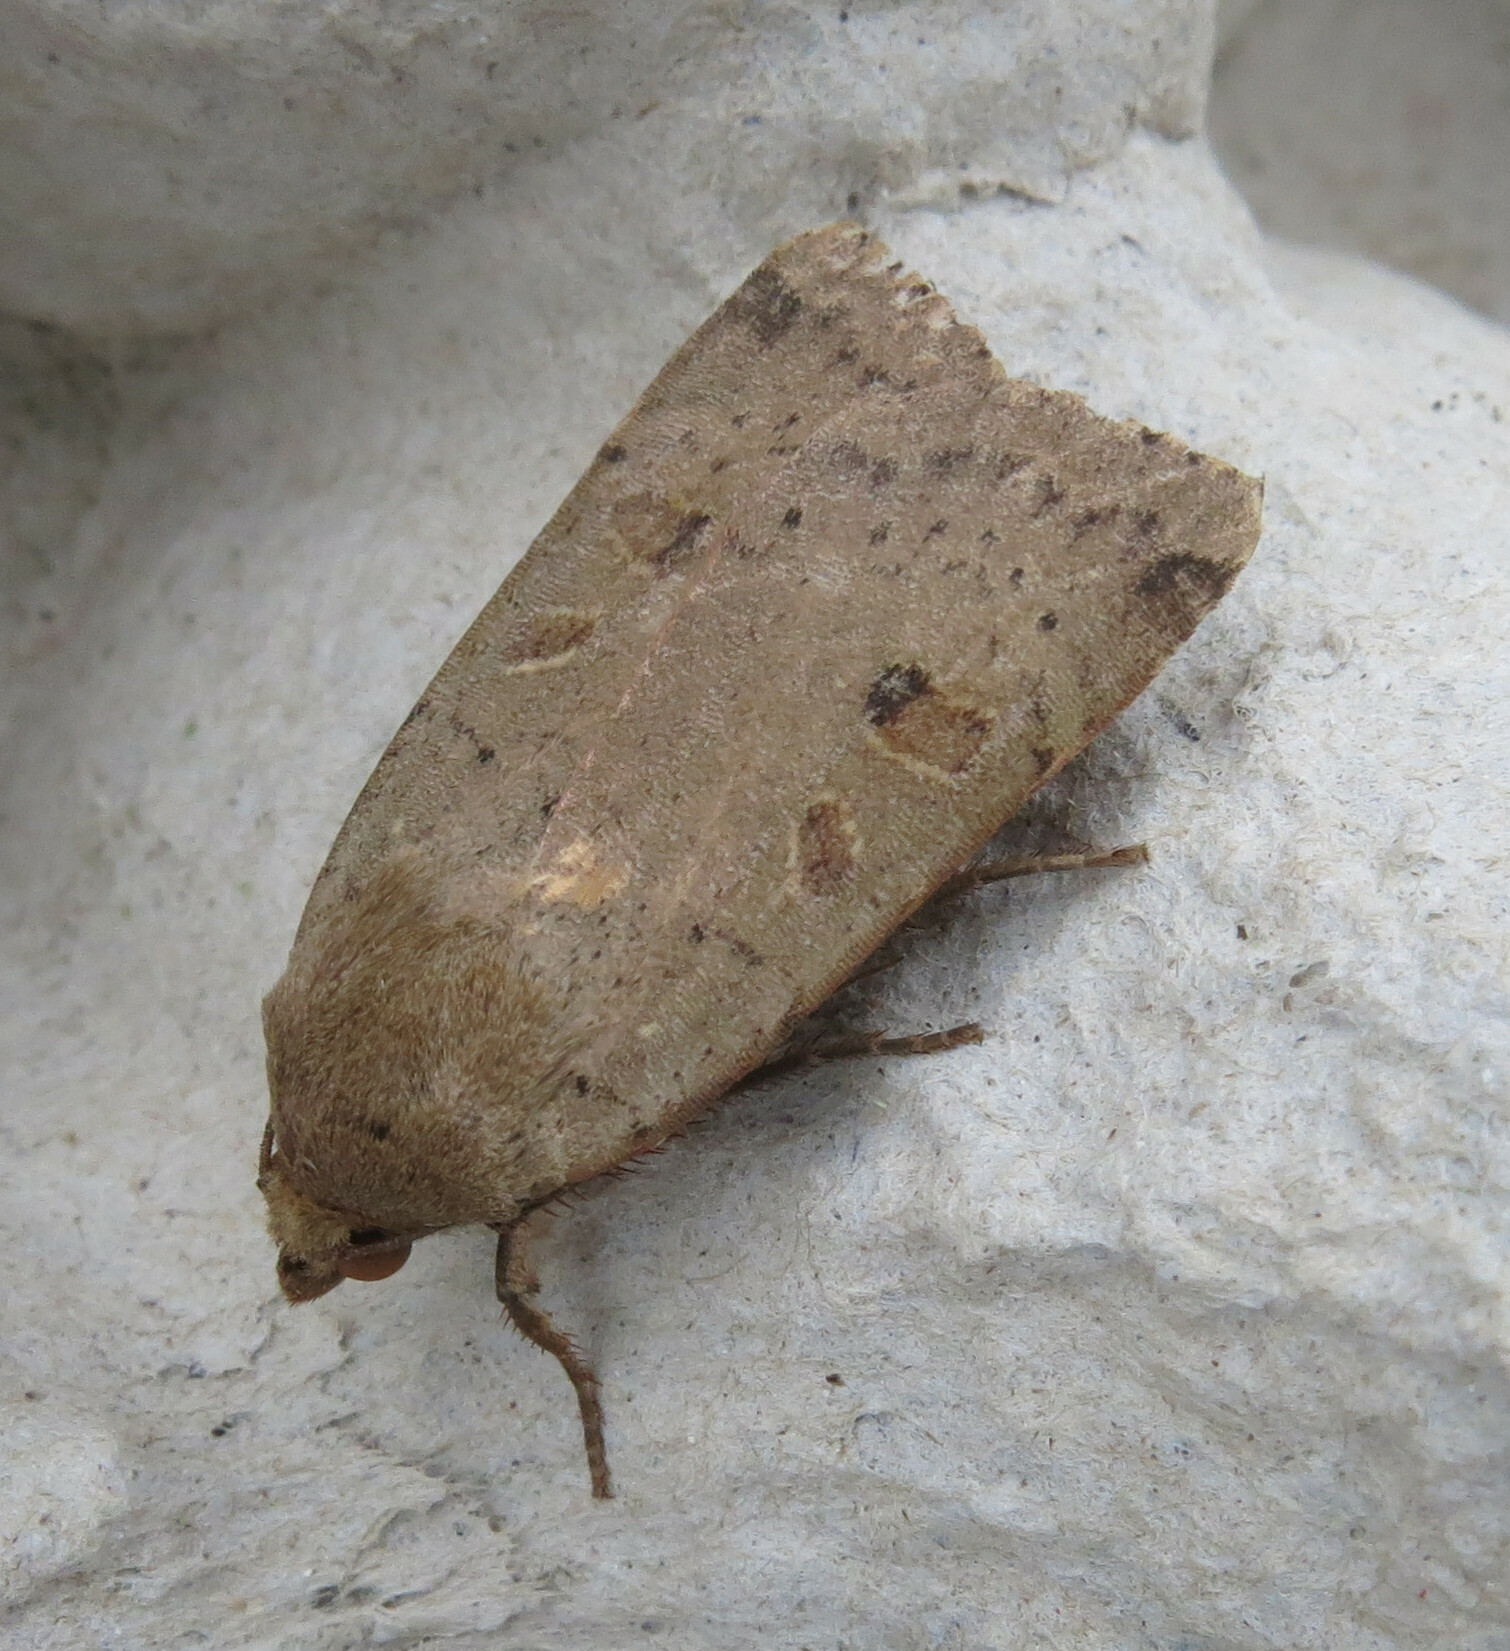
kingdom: Animalia
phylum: Arthropoda
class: Insecta
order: Lepidoptera
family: Noctuidae
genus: Noctua
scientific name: Noctua comes
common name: Lesser yellow underwing
